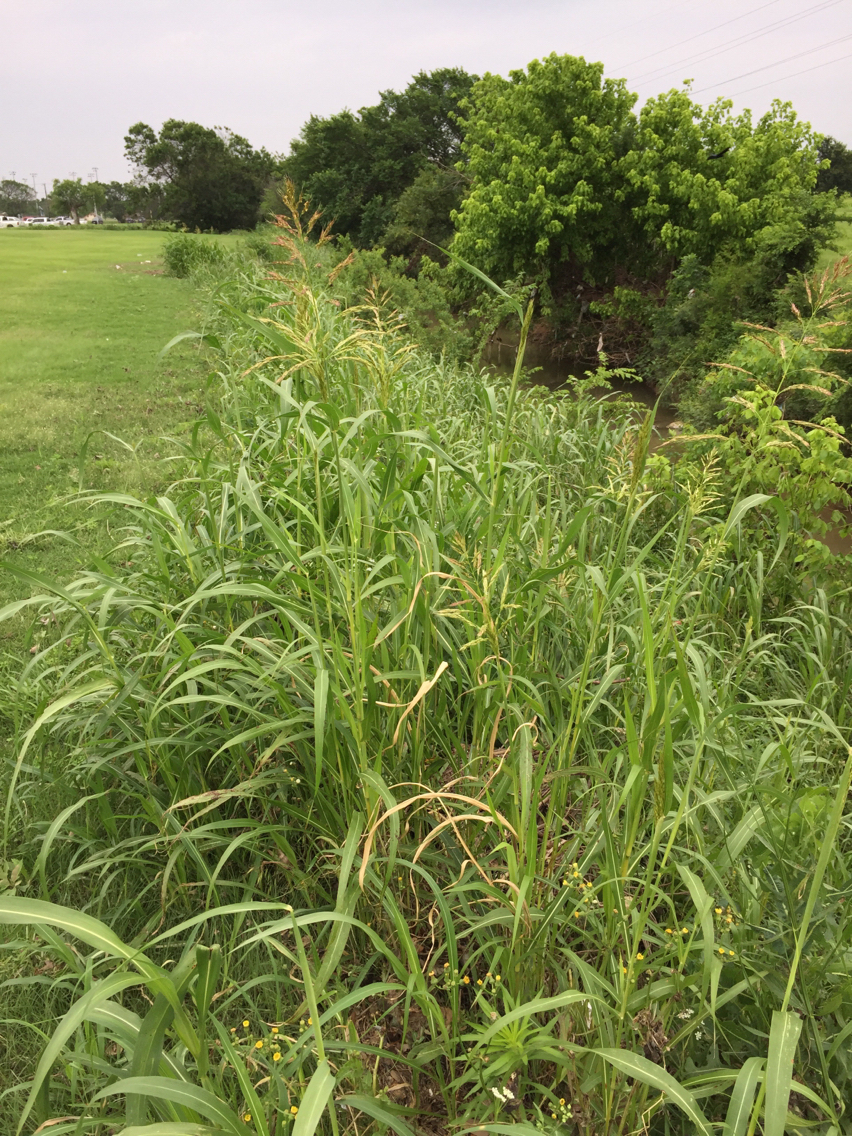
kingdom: Plantae
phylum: Tracheophyta
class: Liliopsida
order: Poales
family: Poaceae
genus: Sorghum
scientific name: Sorghum halepense
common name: Johnson-grass
